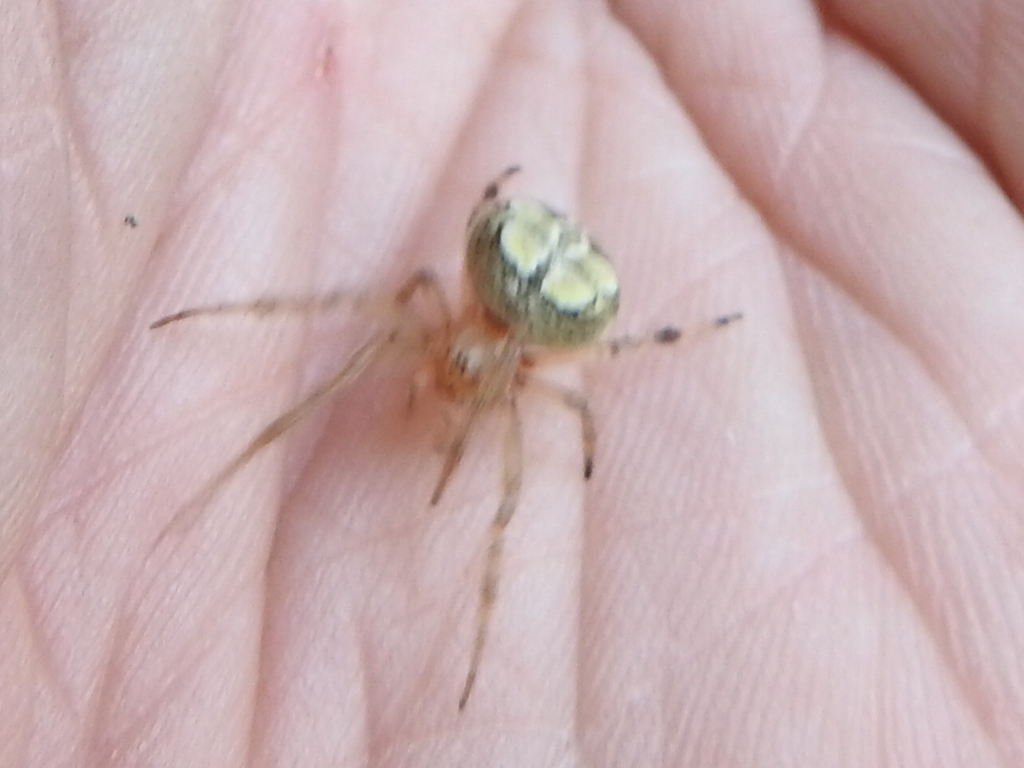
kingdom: Animalia
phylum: Arthropoda
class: Arachnida
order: Araneae
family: Araneidae
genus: Araneus
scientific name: Araneus pegnia
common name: Orb weavers
